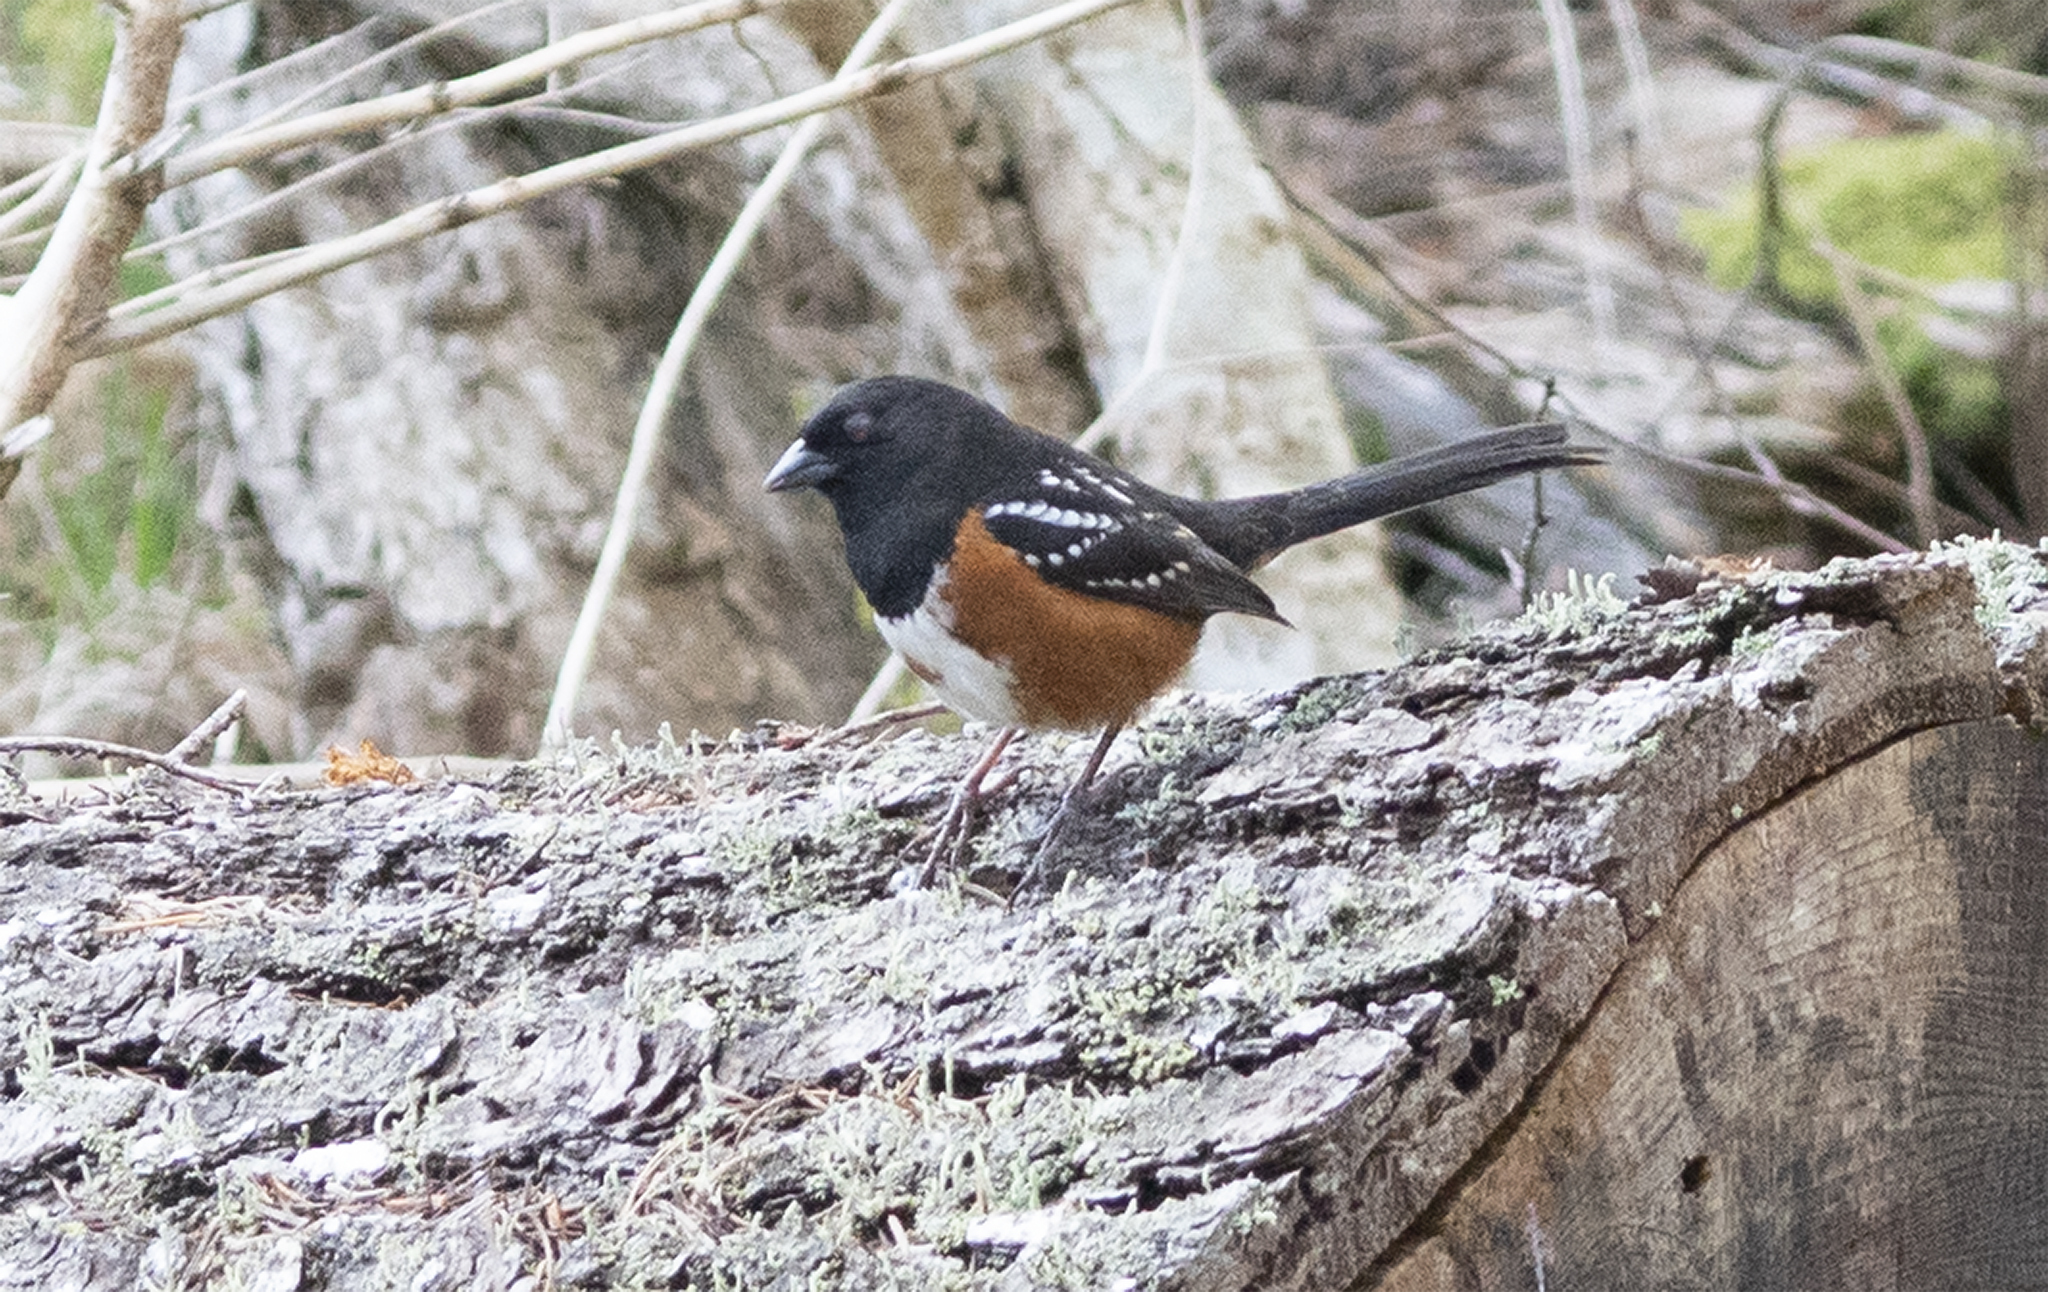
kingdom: Animalia
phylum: Chordata
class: Aves
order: Passeriformes
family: Passerellidae
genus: Pipilo
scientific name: Pipilo maculatus
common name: Spotted towhee
